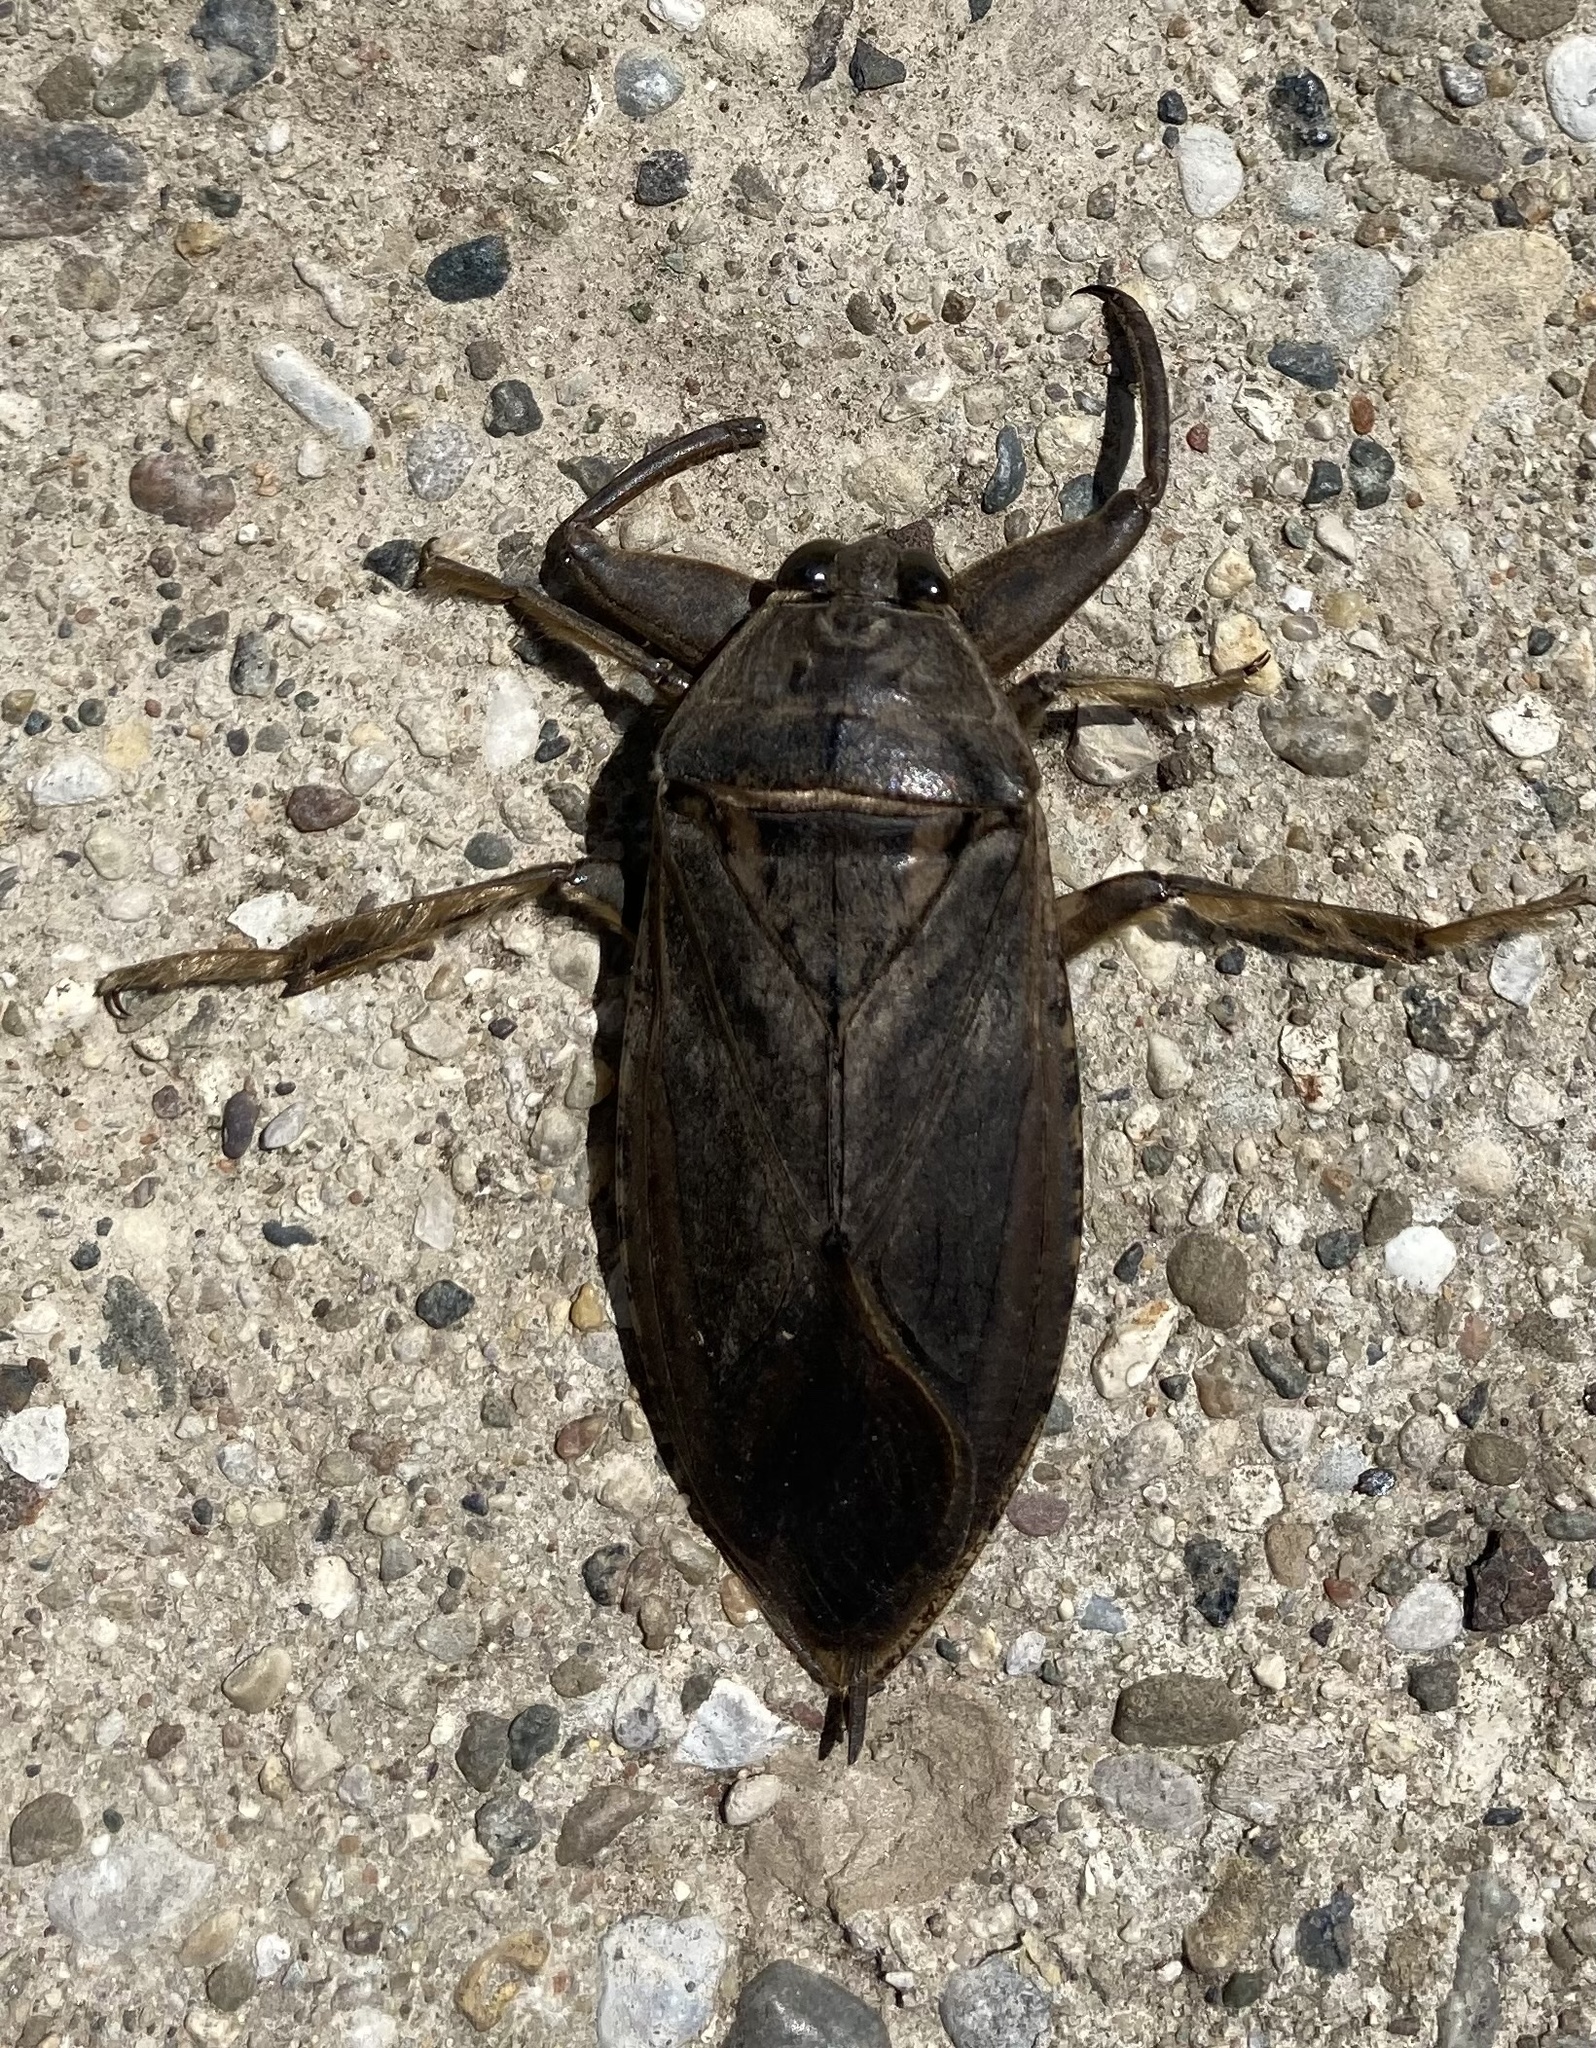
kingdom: Animalia
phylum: Arthropoda
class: Insecta
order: Hemiptera
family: Belostomatidae
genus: Lethocerus
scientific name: Lethocerus americanus
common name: Giant water bug
